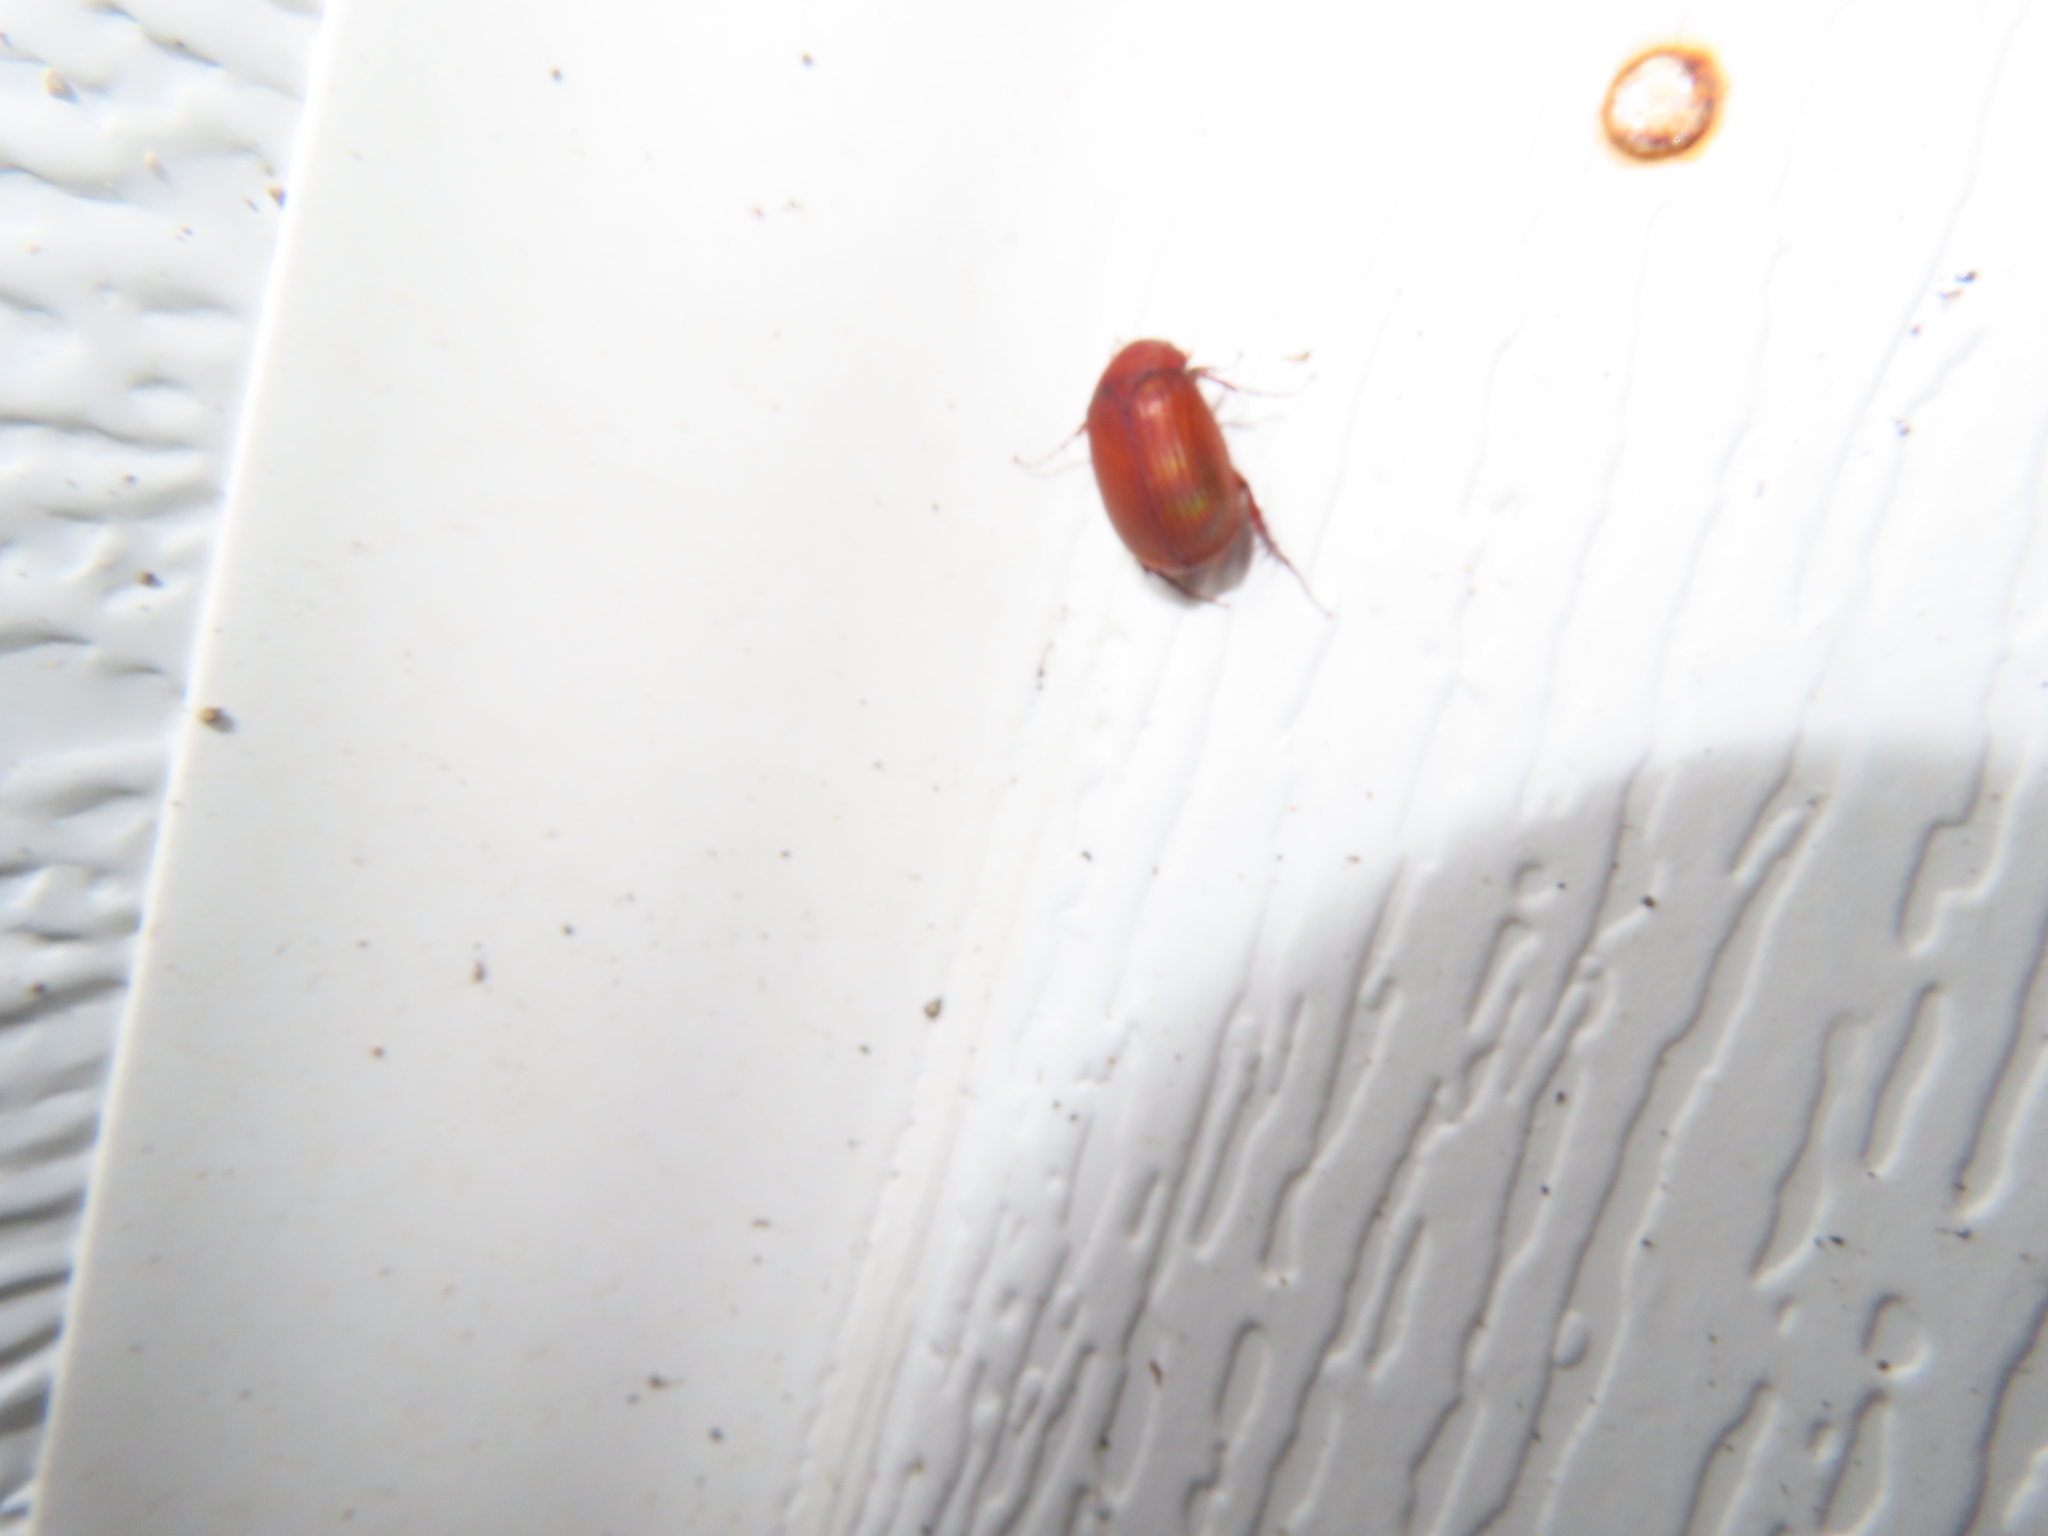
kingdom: Animalia
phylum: Arthropoda
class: Insecta
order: Coleoptera
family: Scarabaeidae
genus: Maladera
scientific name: Maladera formosae
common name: Asiatic garden beetle
